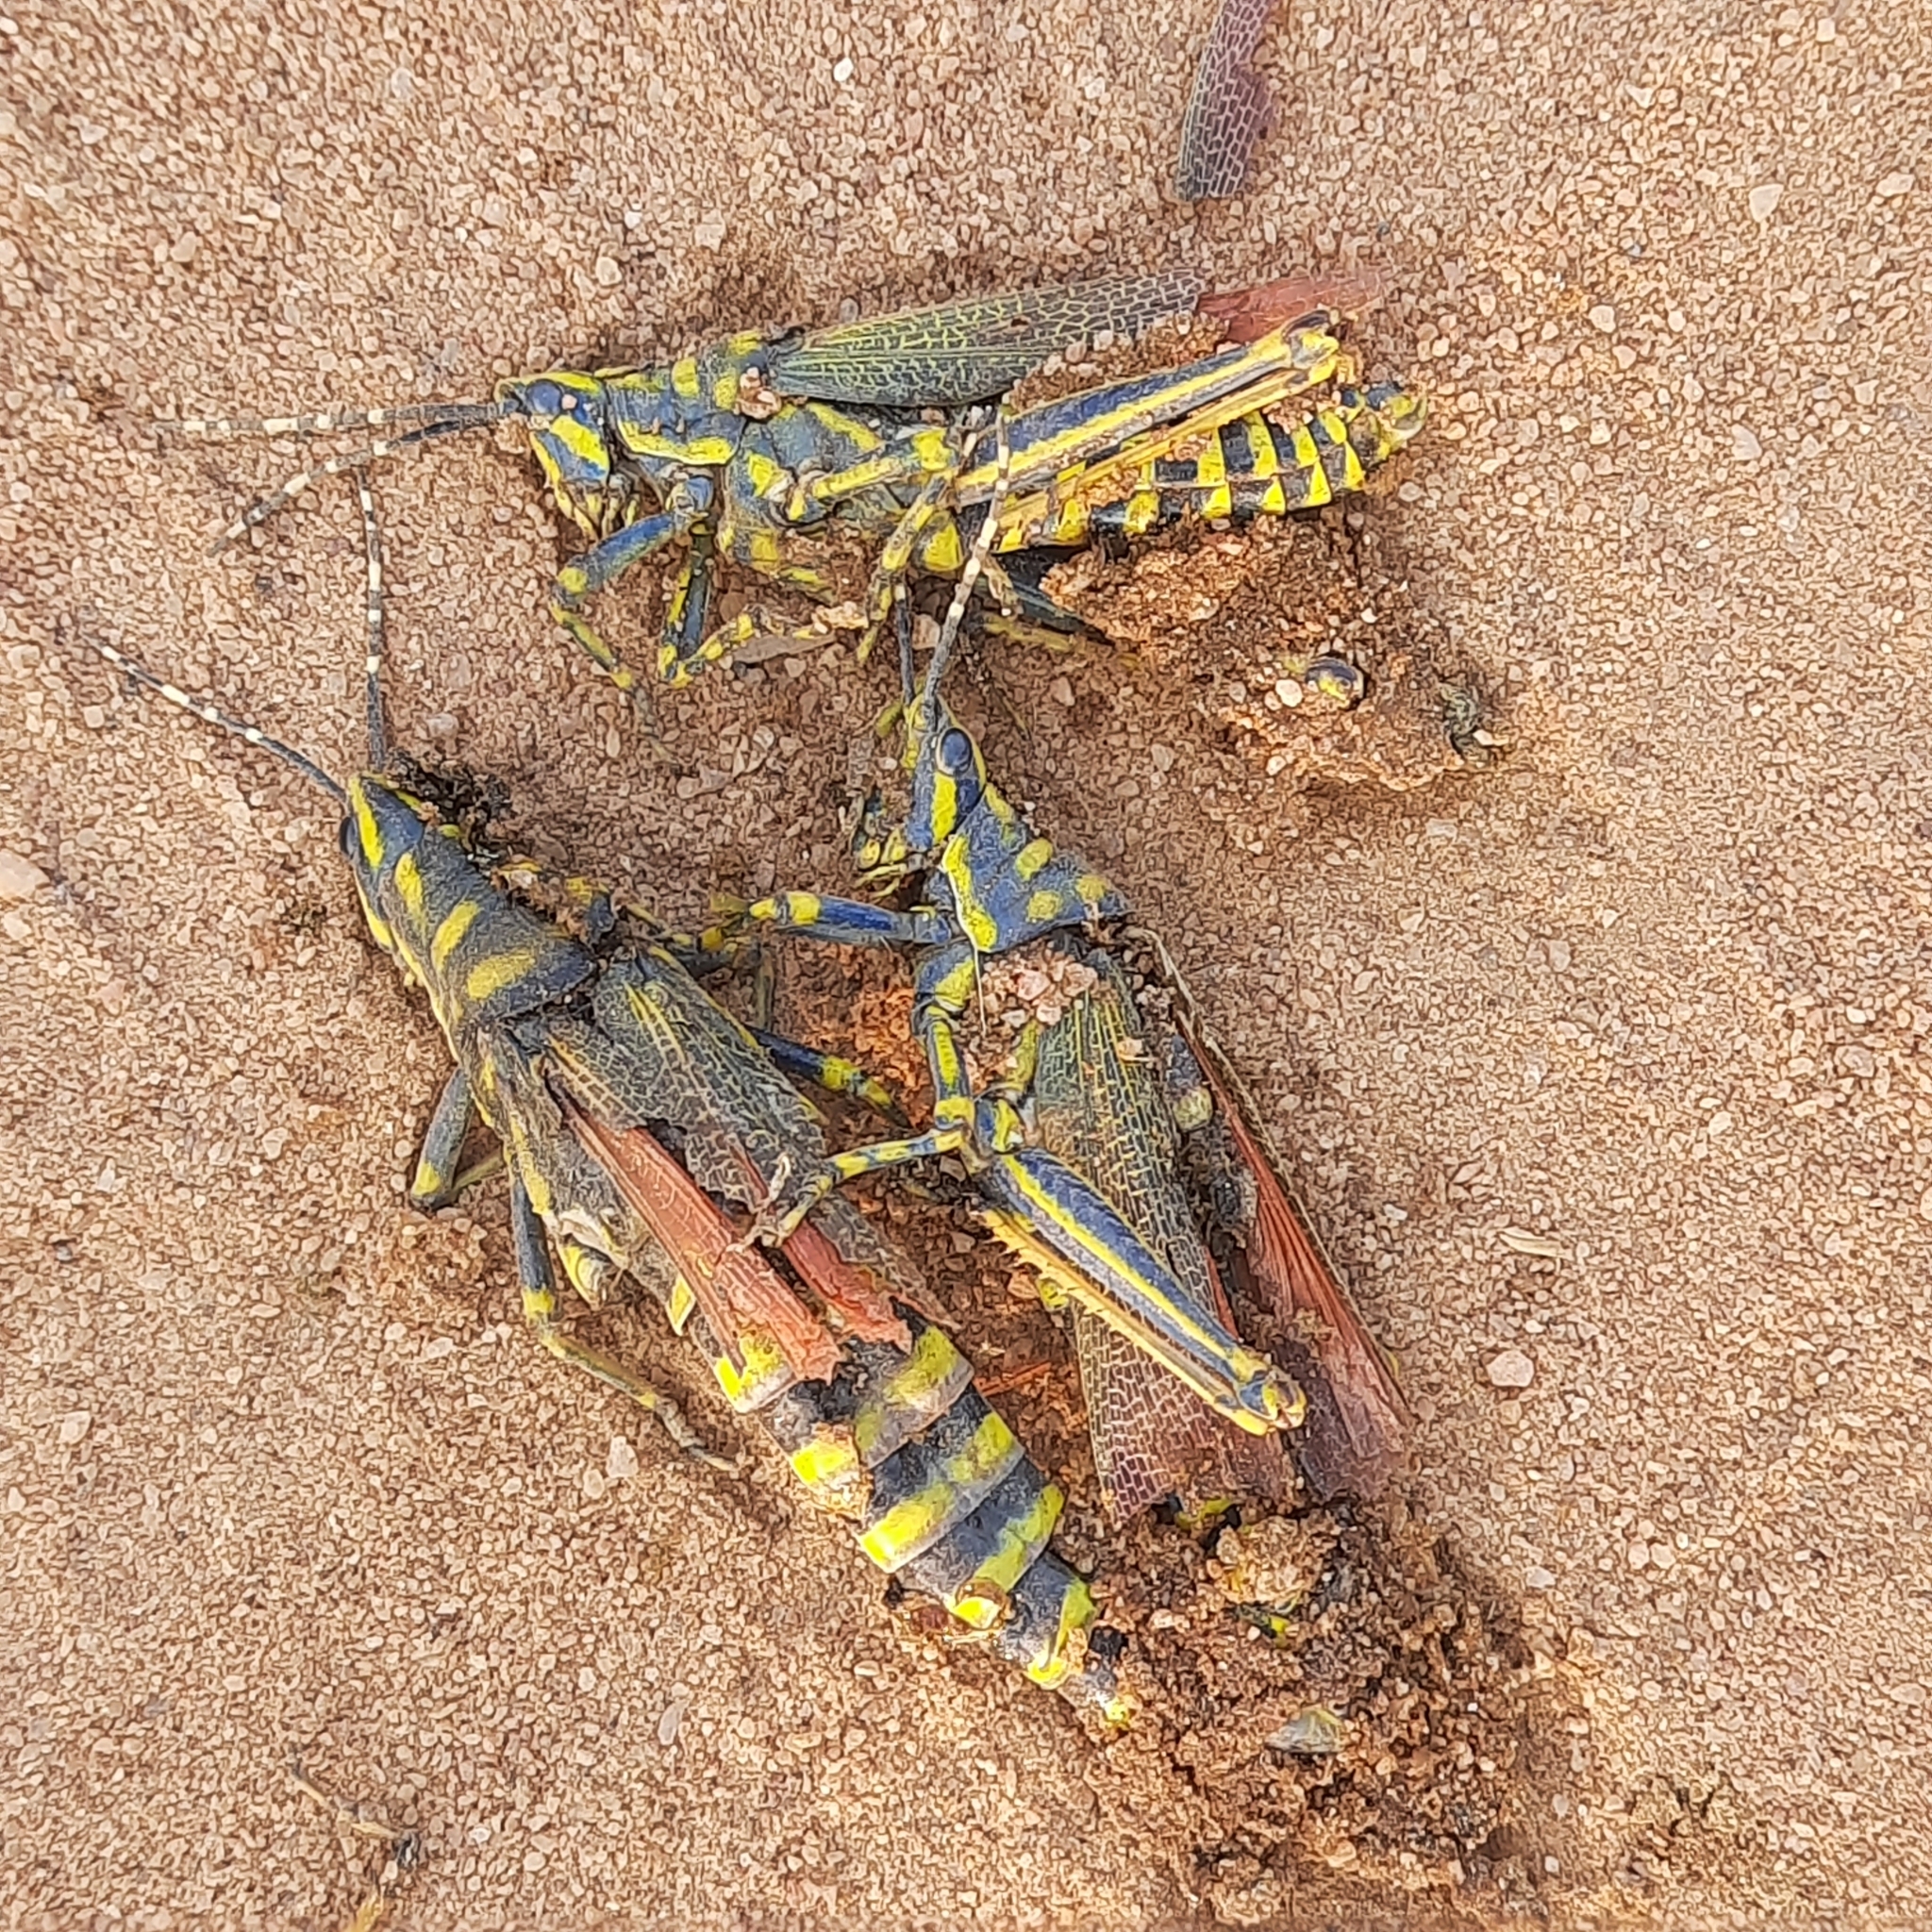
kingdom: Animalia
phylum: Arthropoda
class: Insecta
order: Orthoptera
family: Pyrgomorphidae
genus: Poekilocerus
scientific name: Poekilocerus pictus
